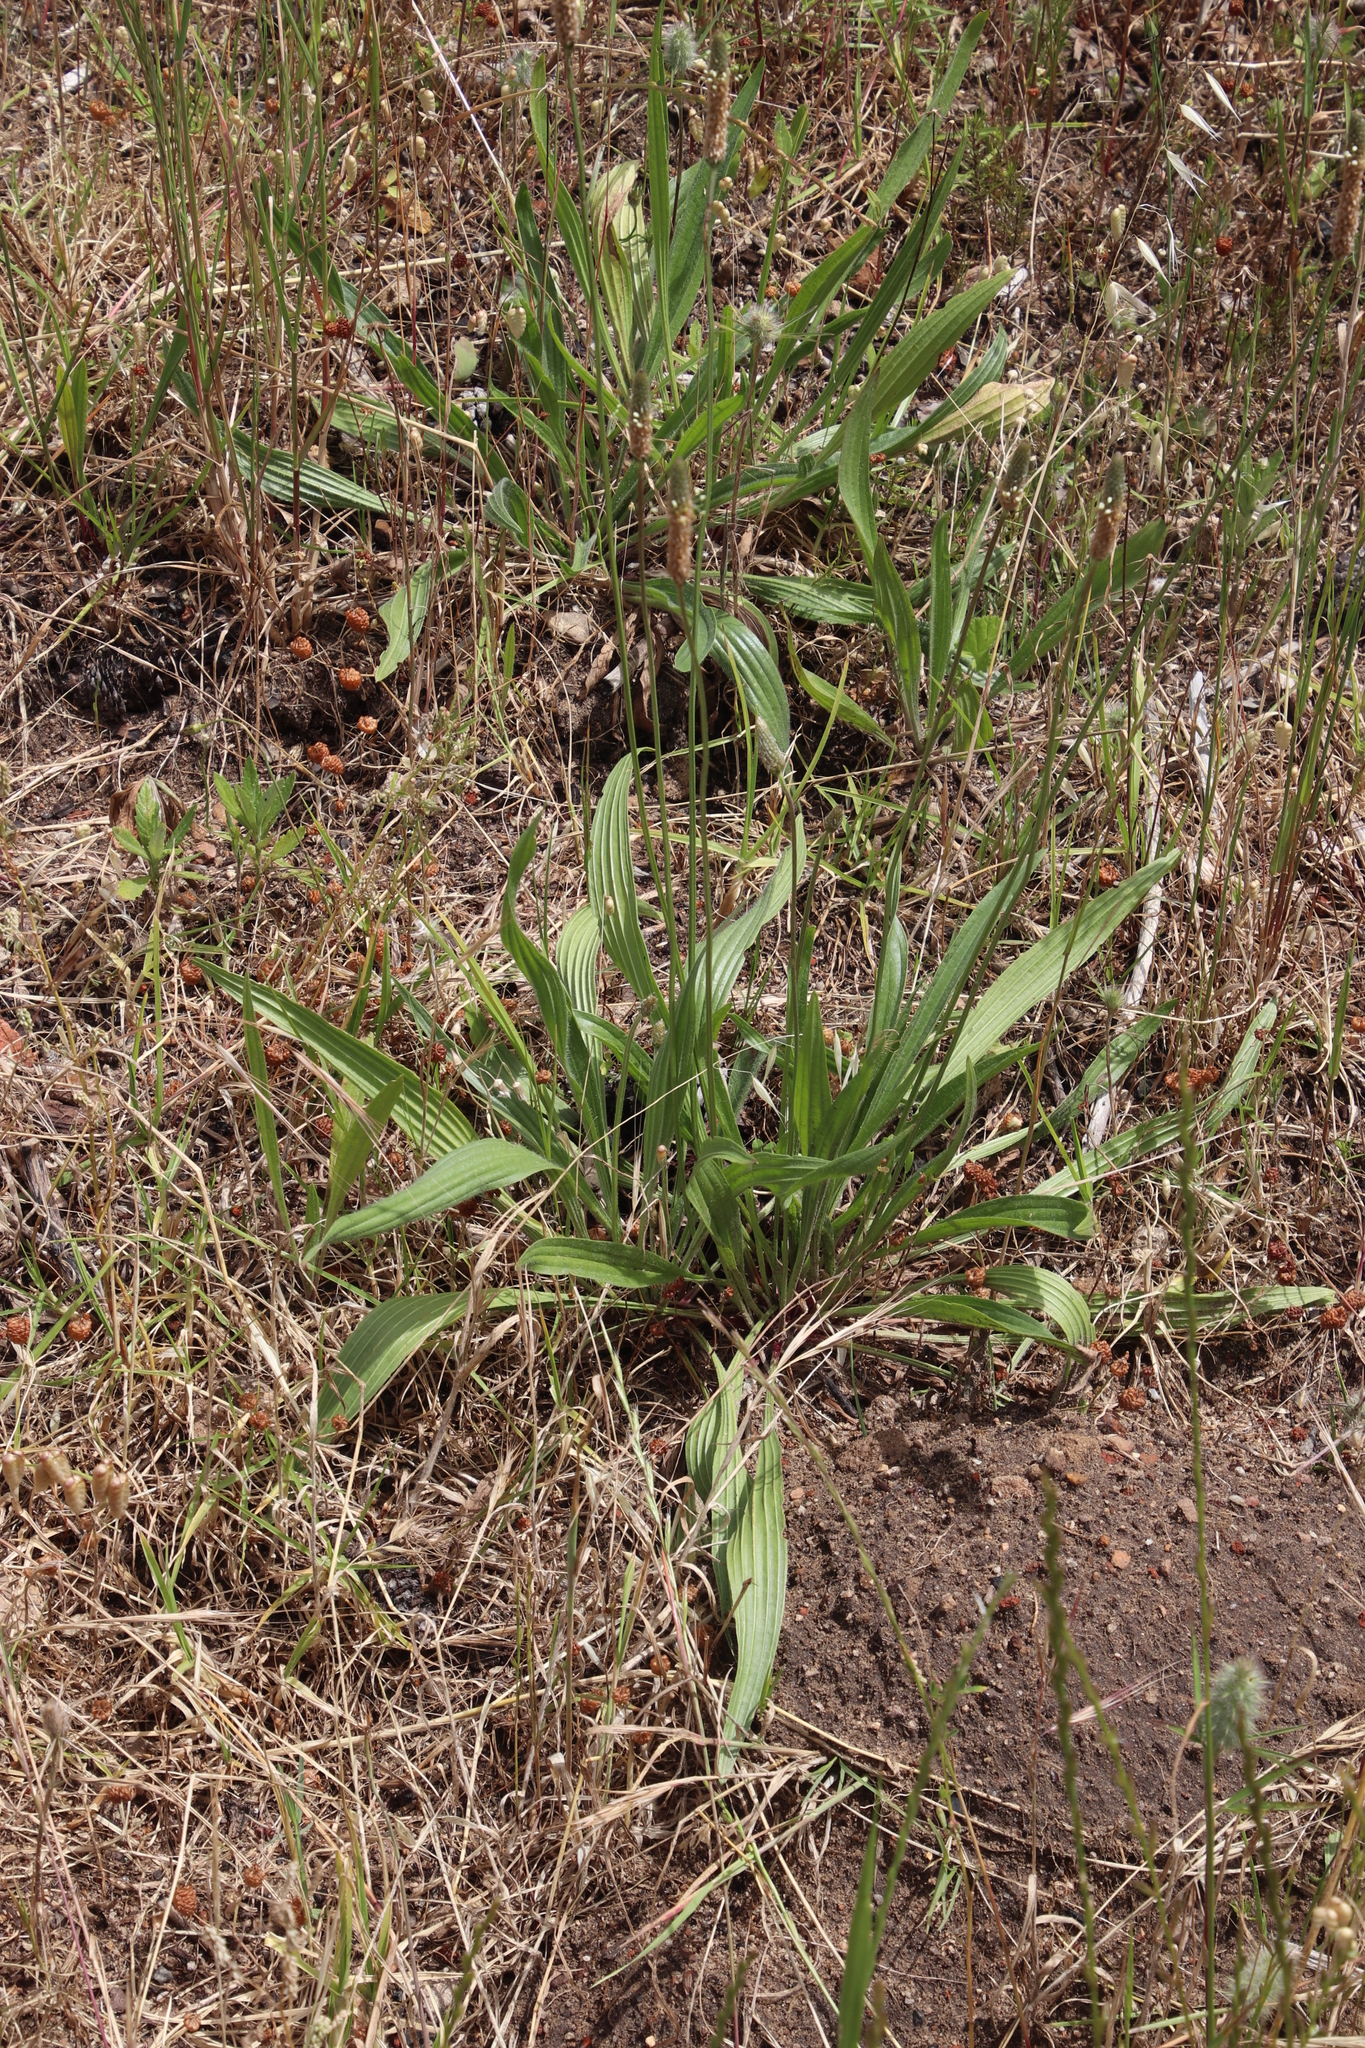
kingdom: Plantae
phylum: Tracheophyta
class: Magnoliopsida
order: Lamiales
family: Plantaginaceae
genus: Plantago
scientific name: Plantago lanceolata
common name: Ribwort plantain
